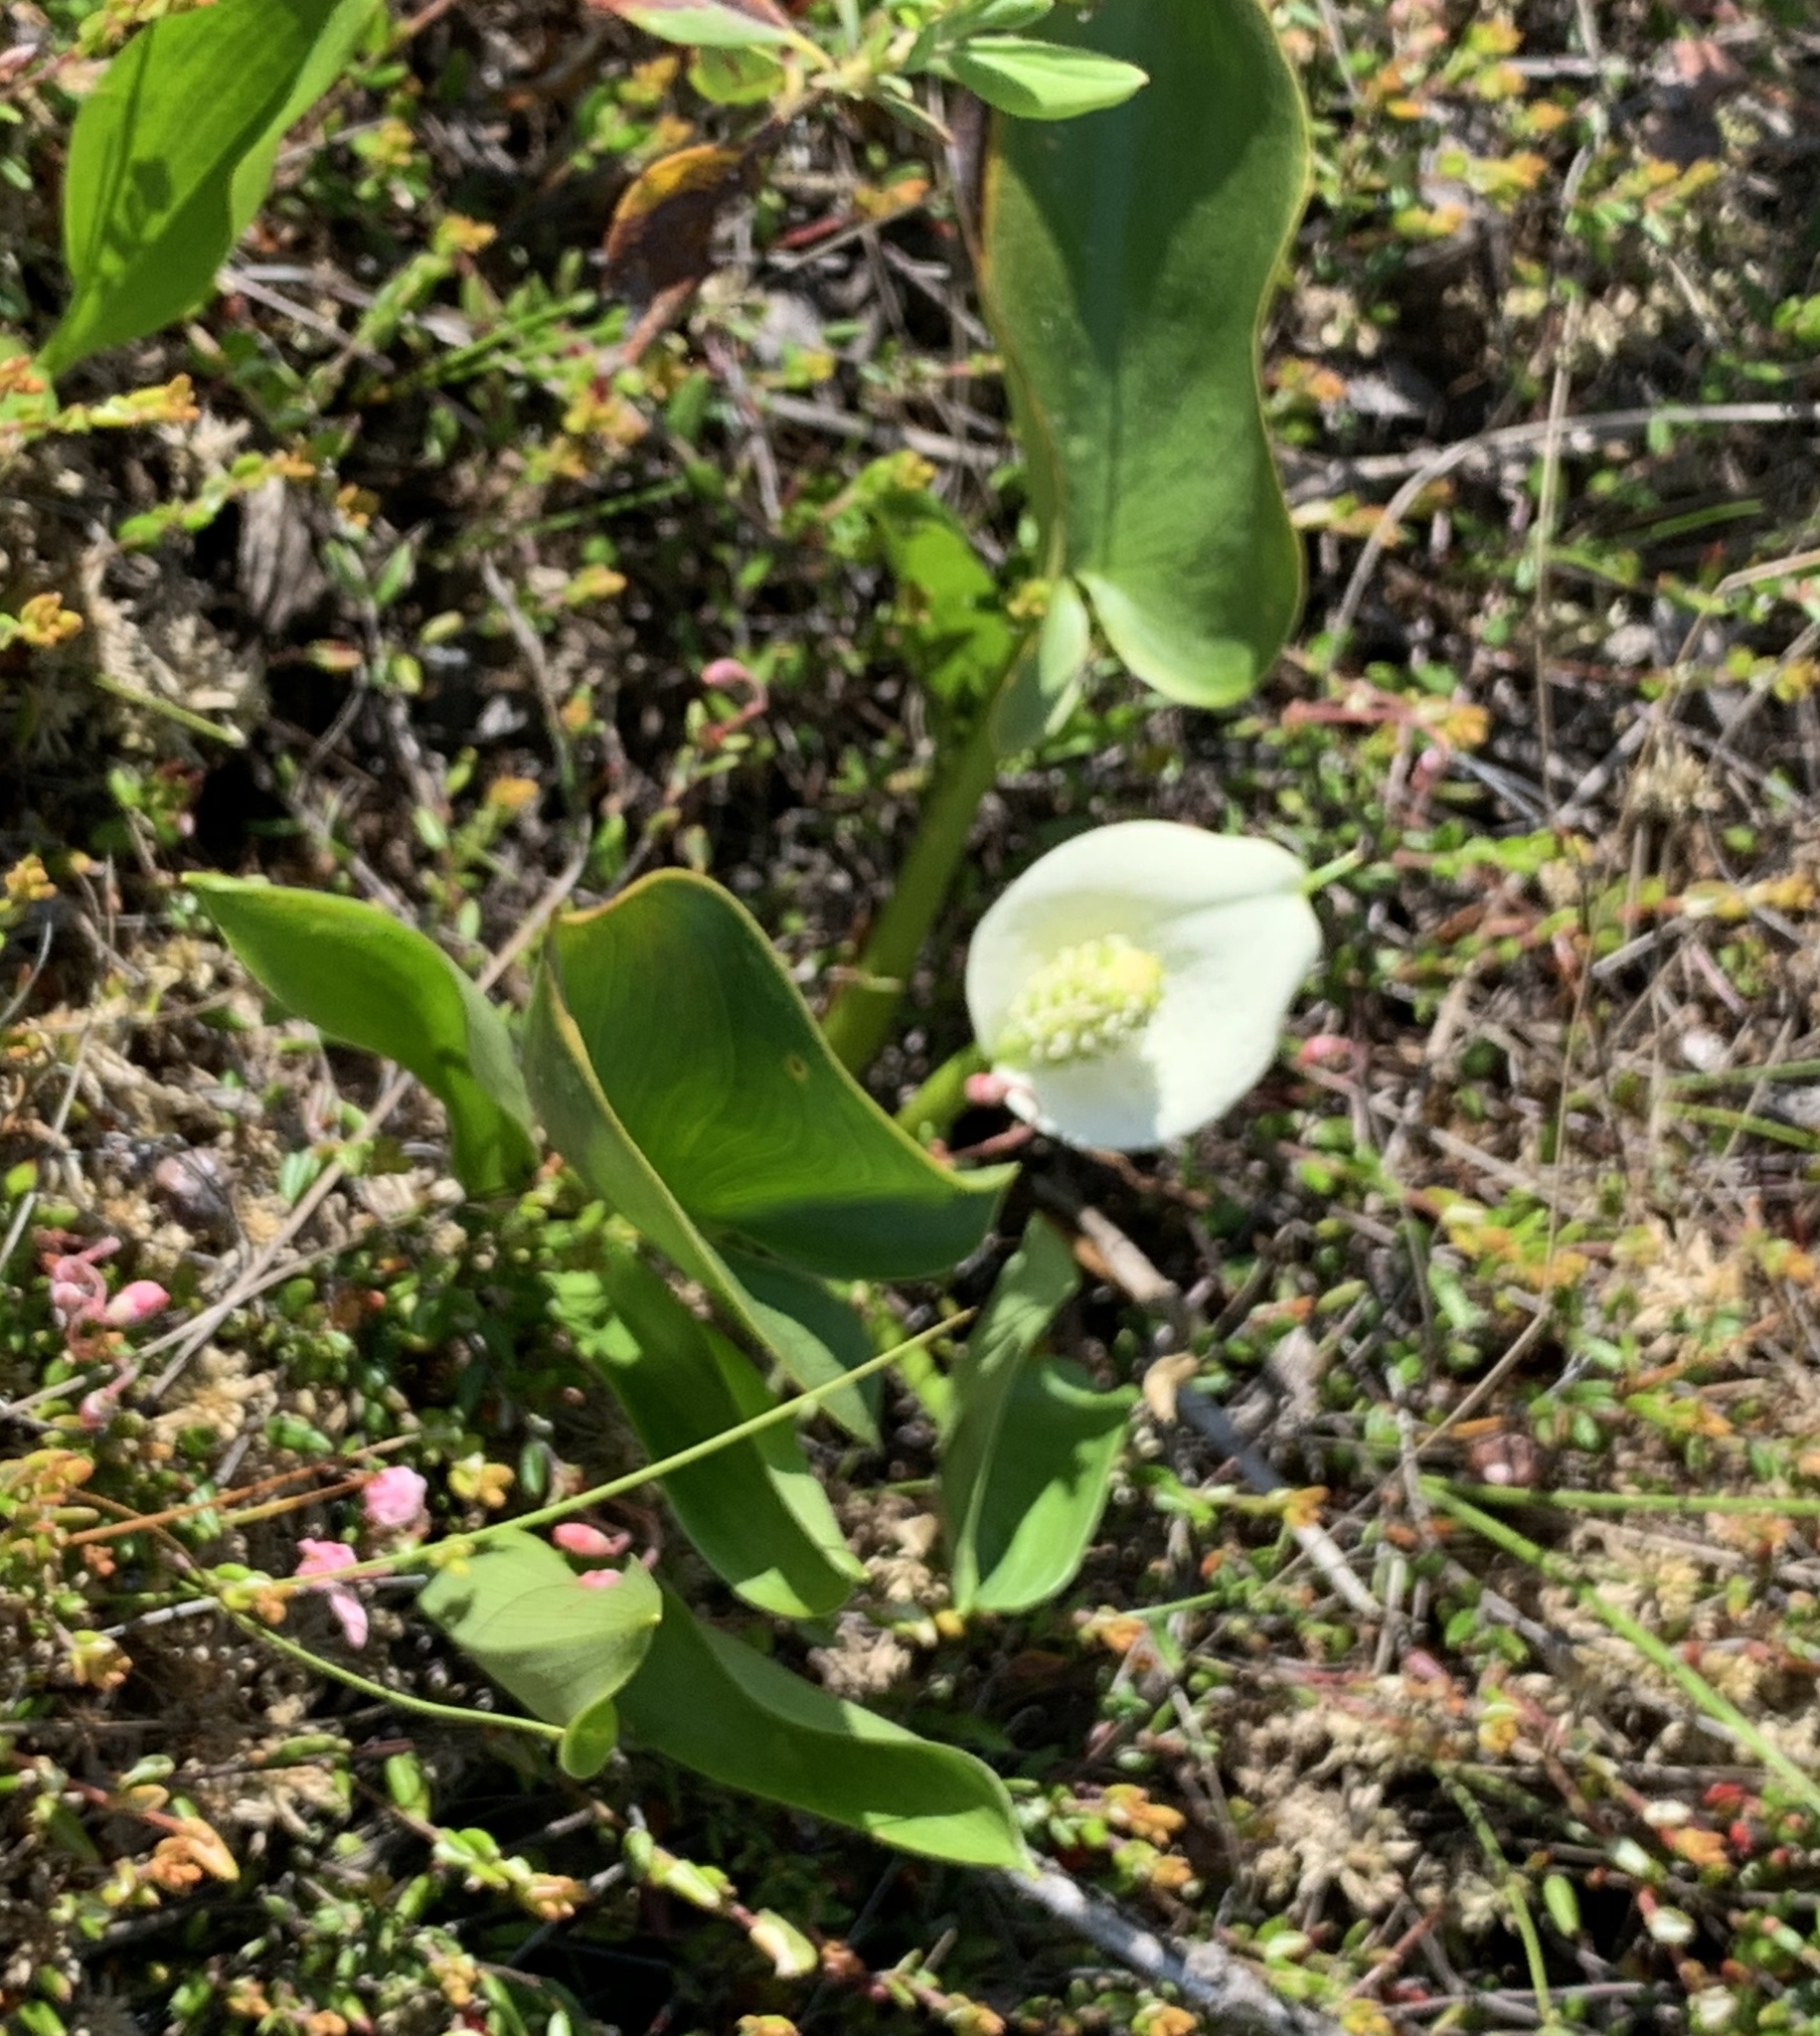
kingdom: Plantae
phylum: Tracheophyta
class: Liliopsida
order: Alismatales
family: Araceae
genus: Calla
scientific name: Calla palustris
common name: Bog arum
